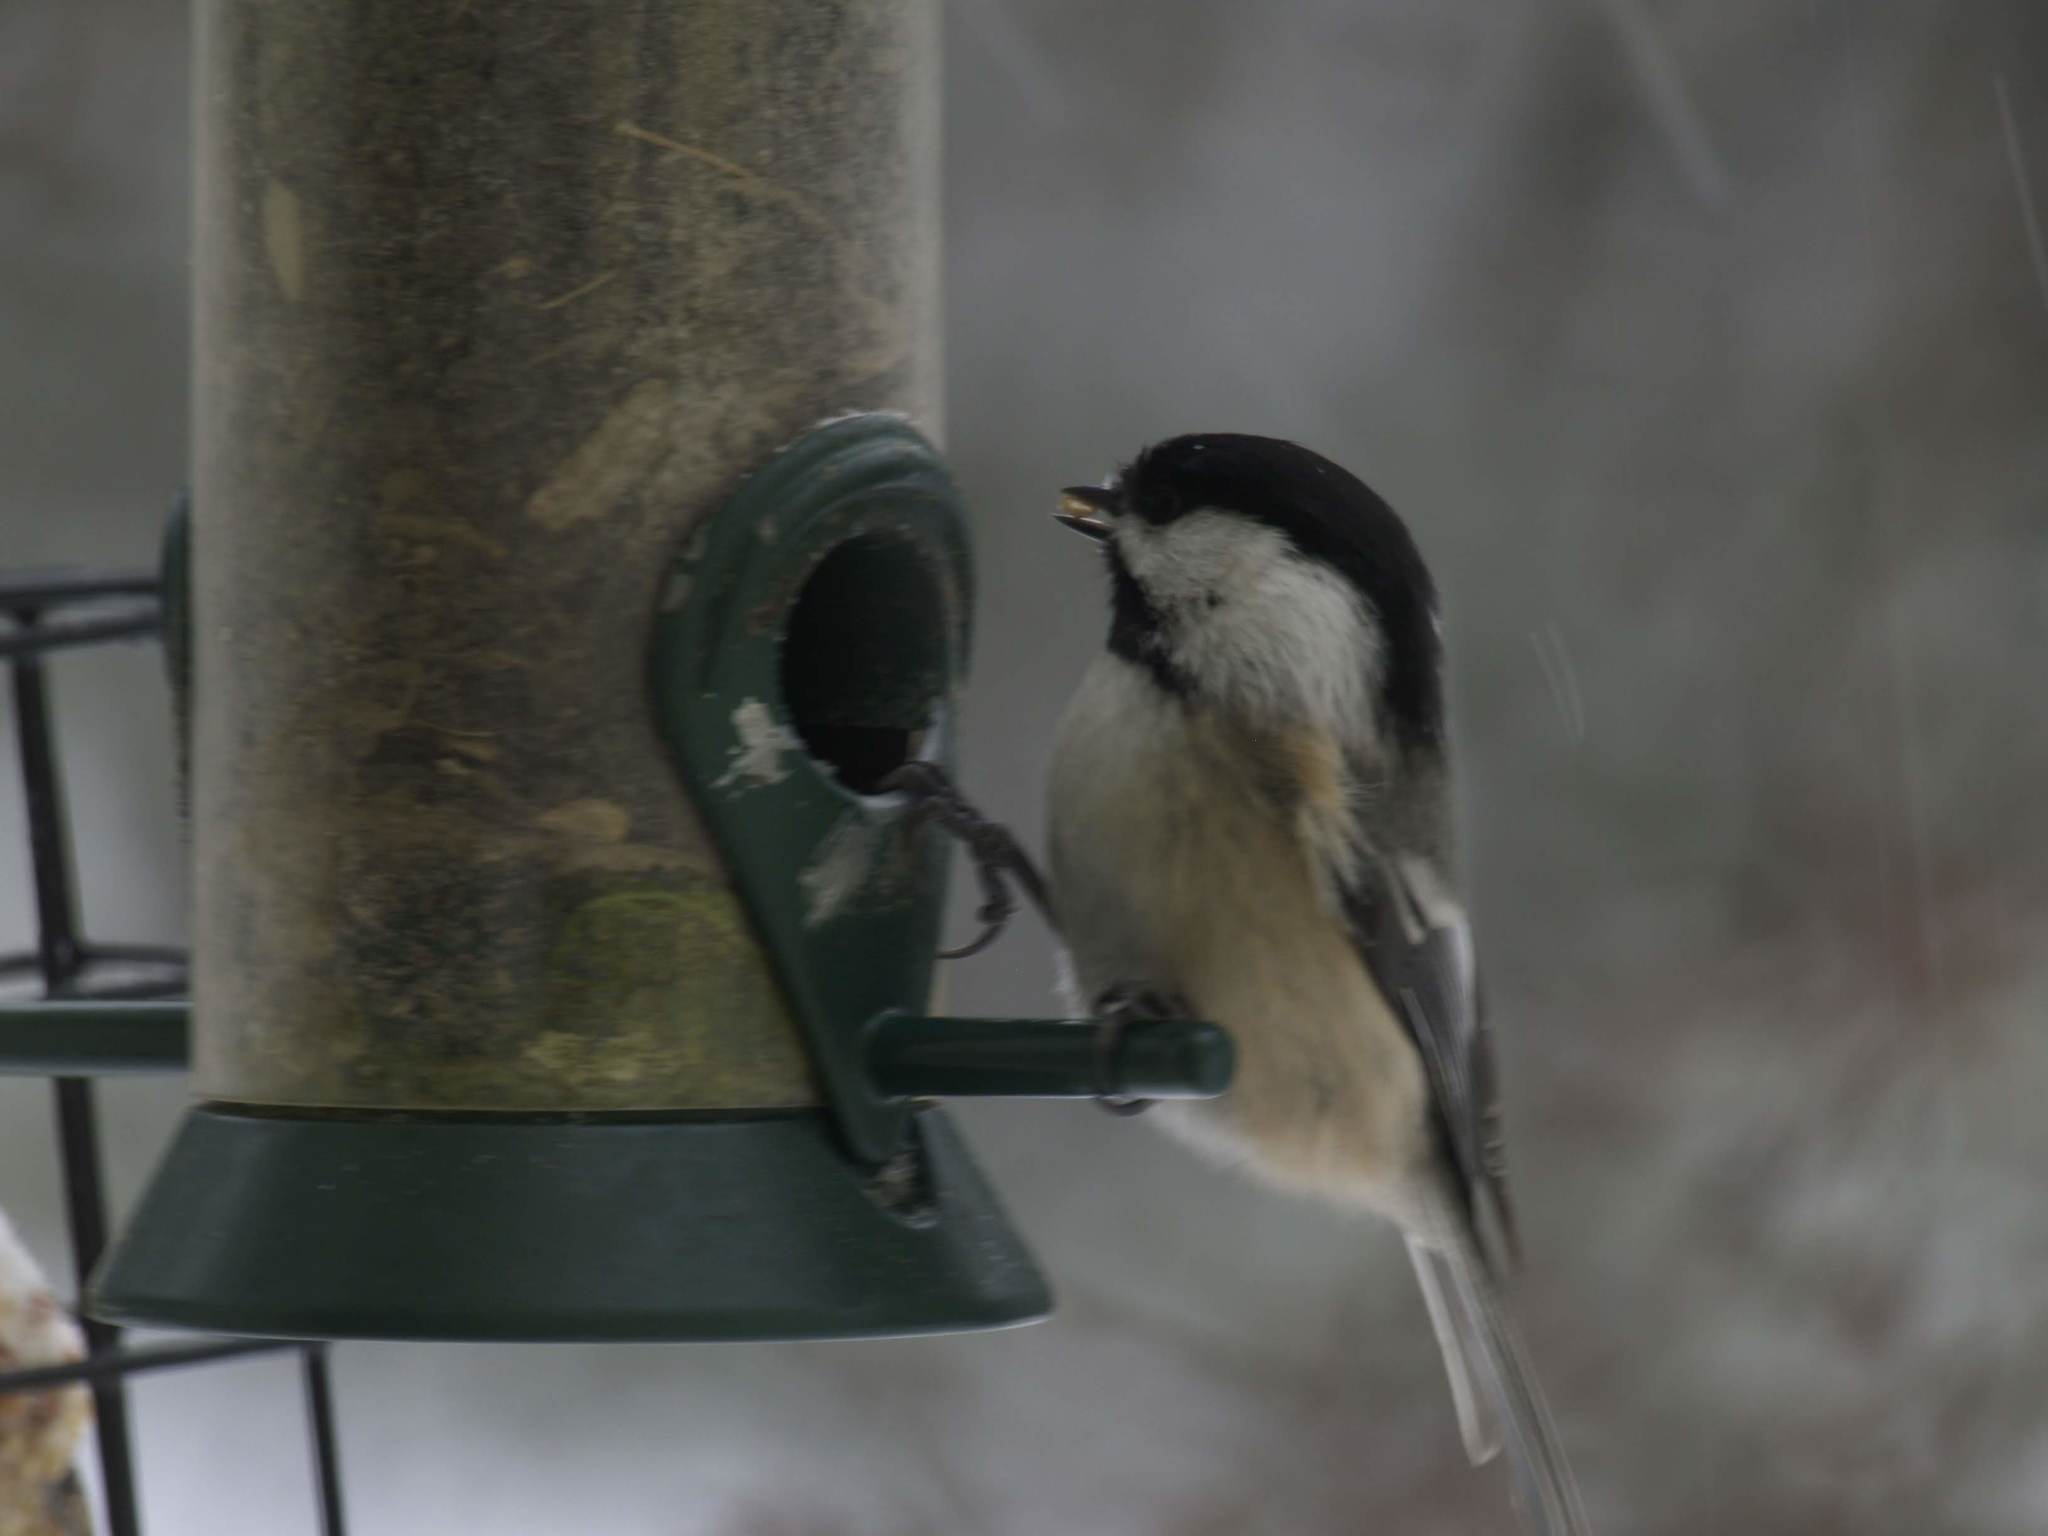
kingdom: Animalia
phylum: Chordata
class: Aves
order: Passeriformes
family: Paridae
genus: Poecile
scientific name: Poecile atricapillus
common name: Black-capped chickadee
